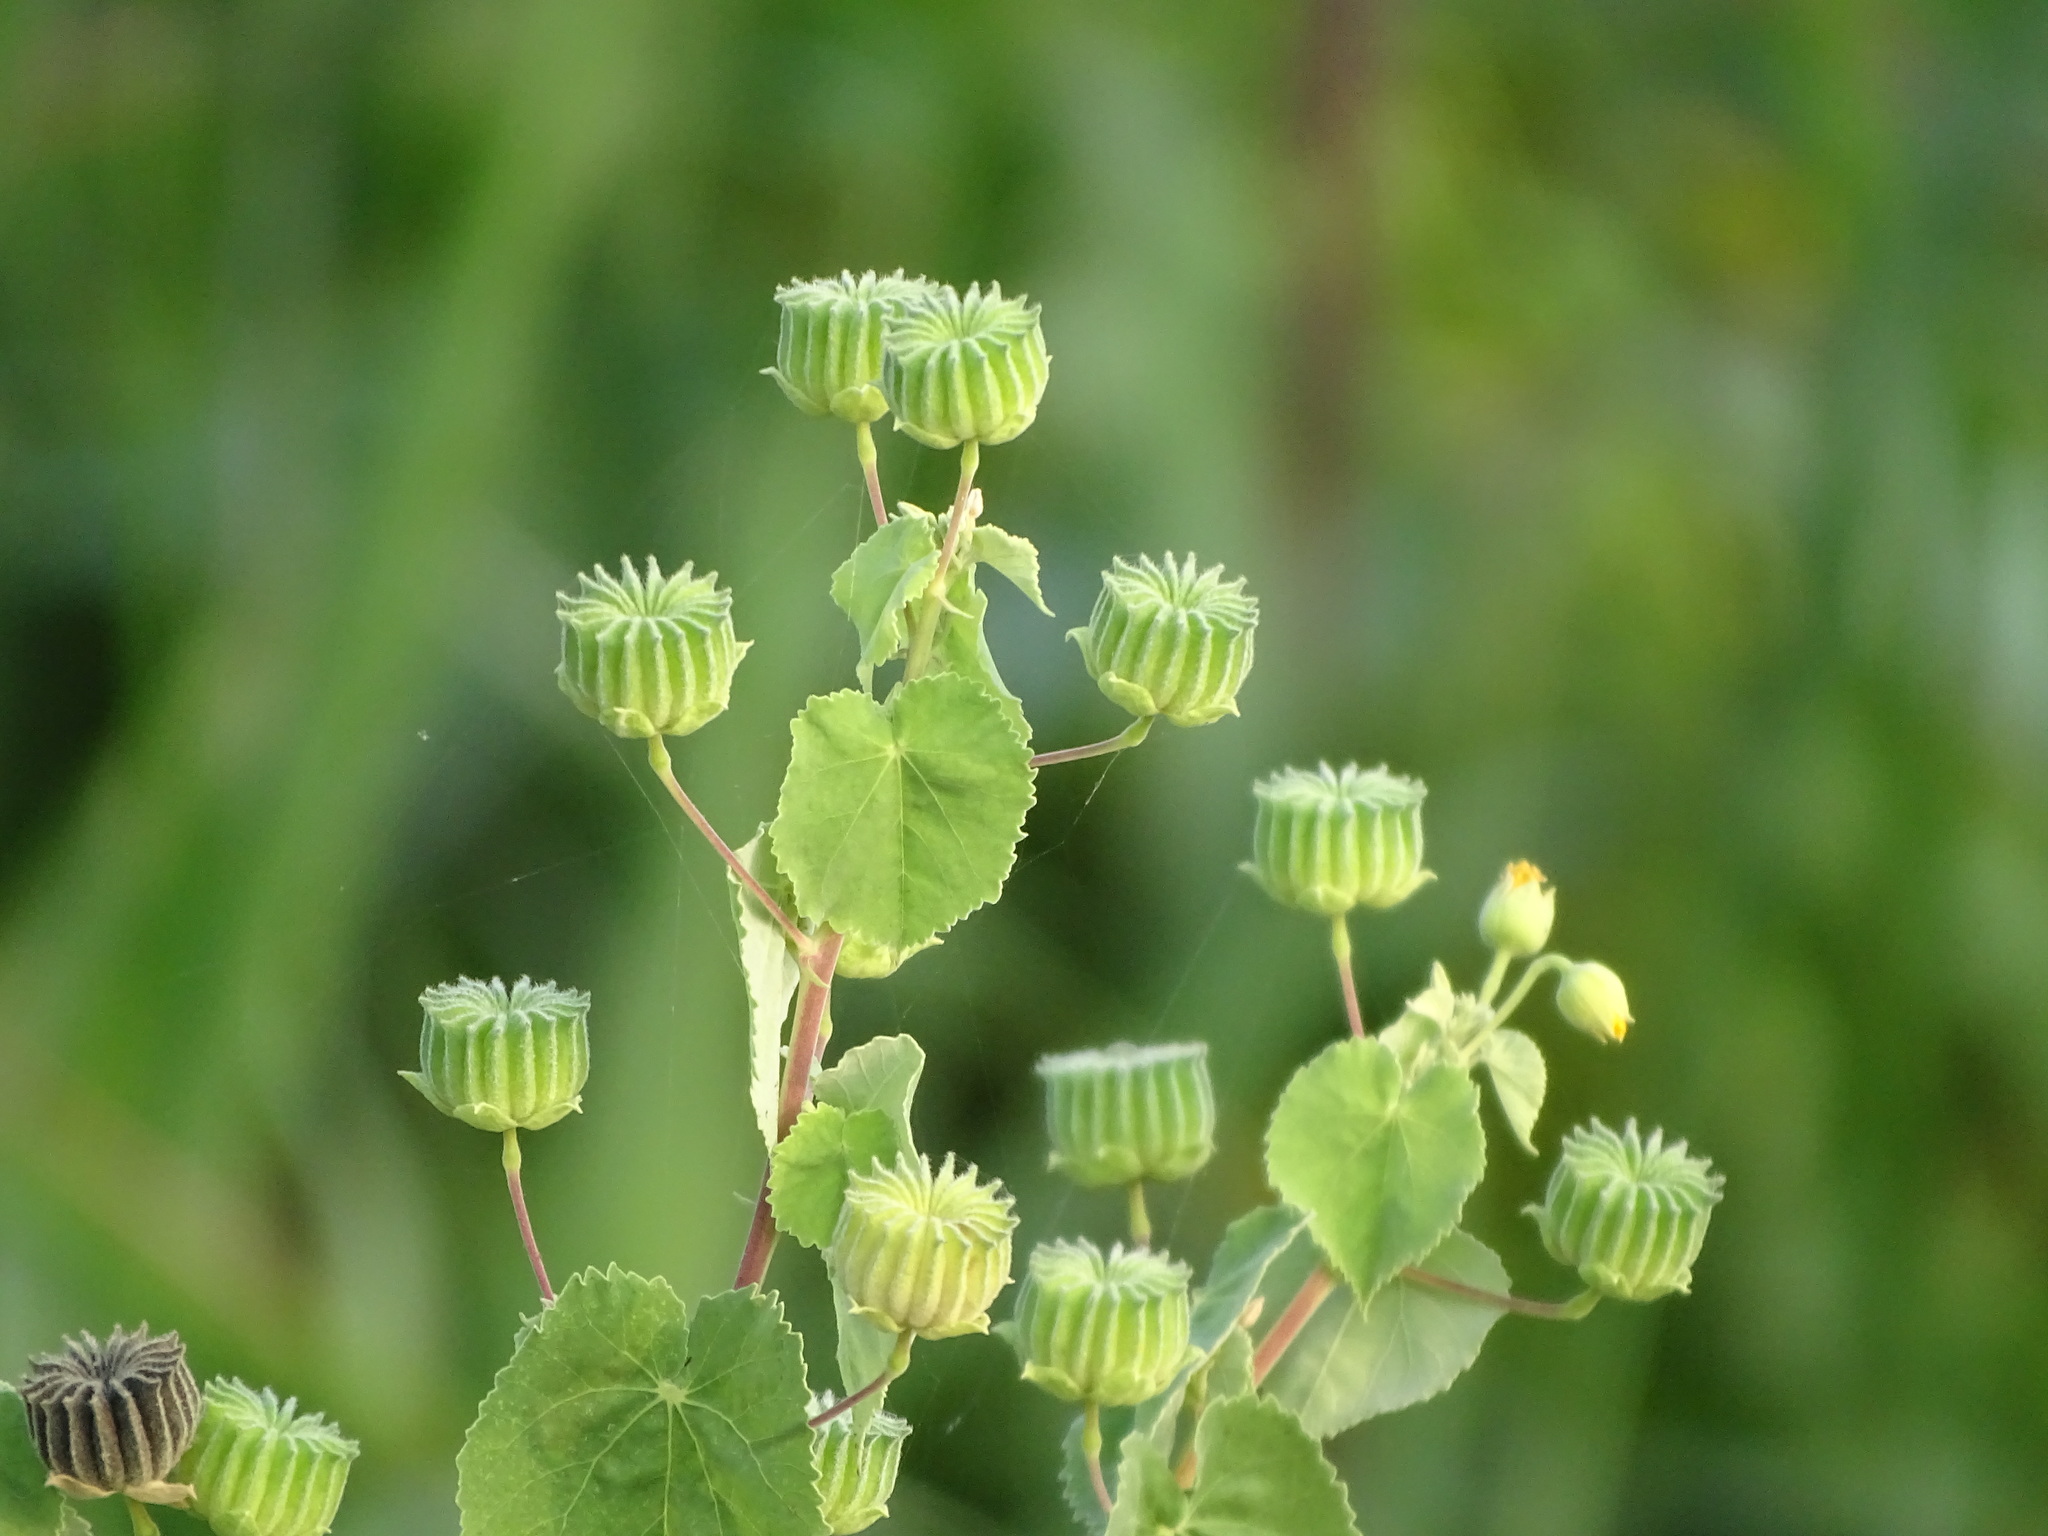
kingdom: Plantae
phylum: Tracheophyta
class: Magnoliopsida
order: Malvales
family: Malvaceae
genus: Abutilon
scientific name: Abutilon indicum
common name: Indian abutilon
